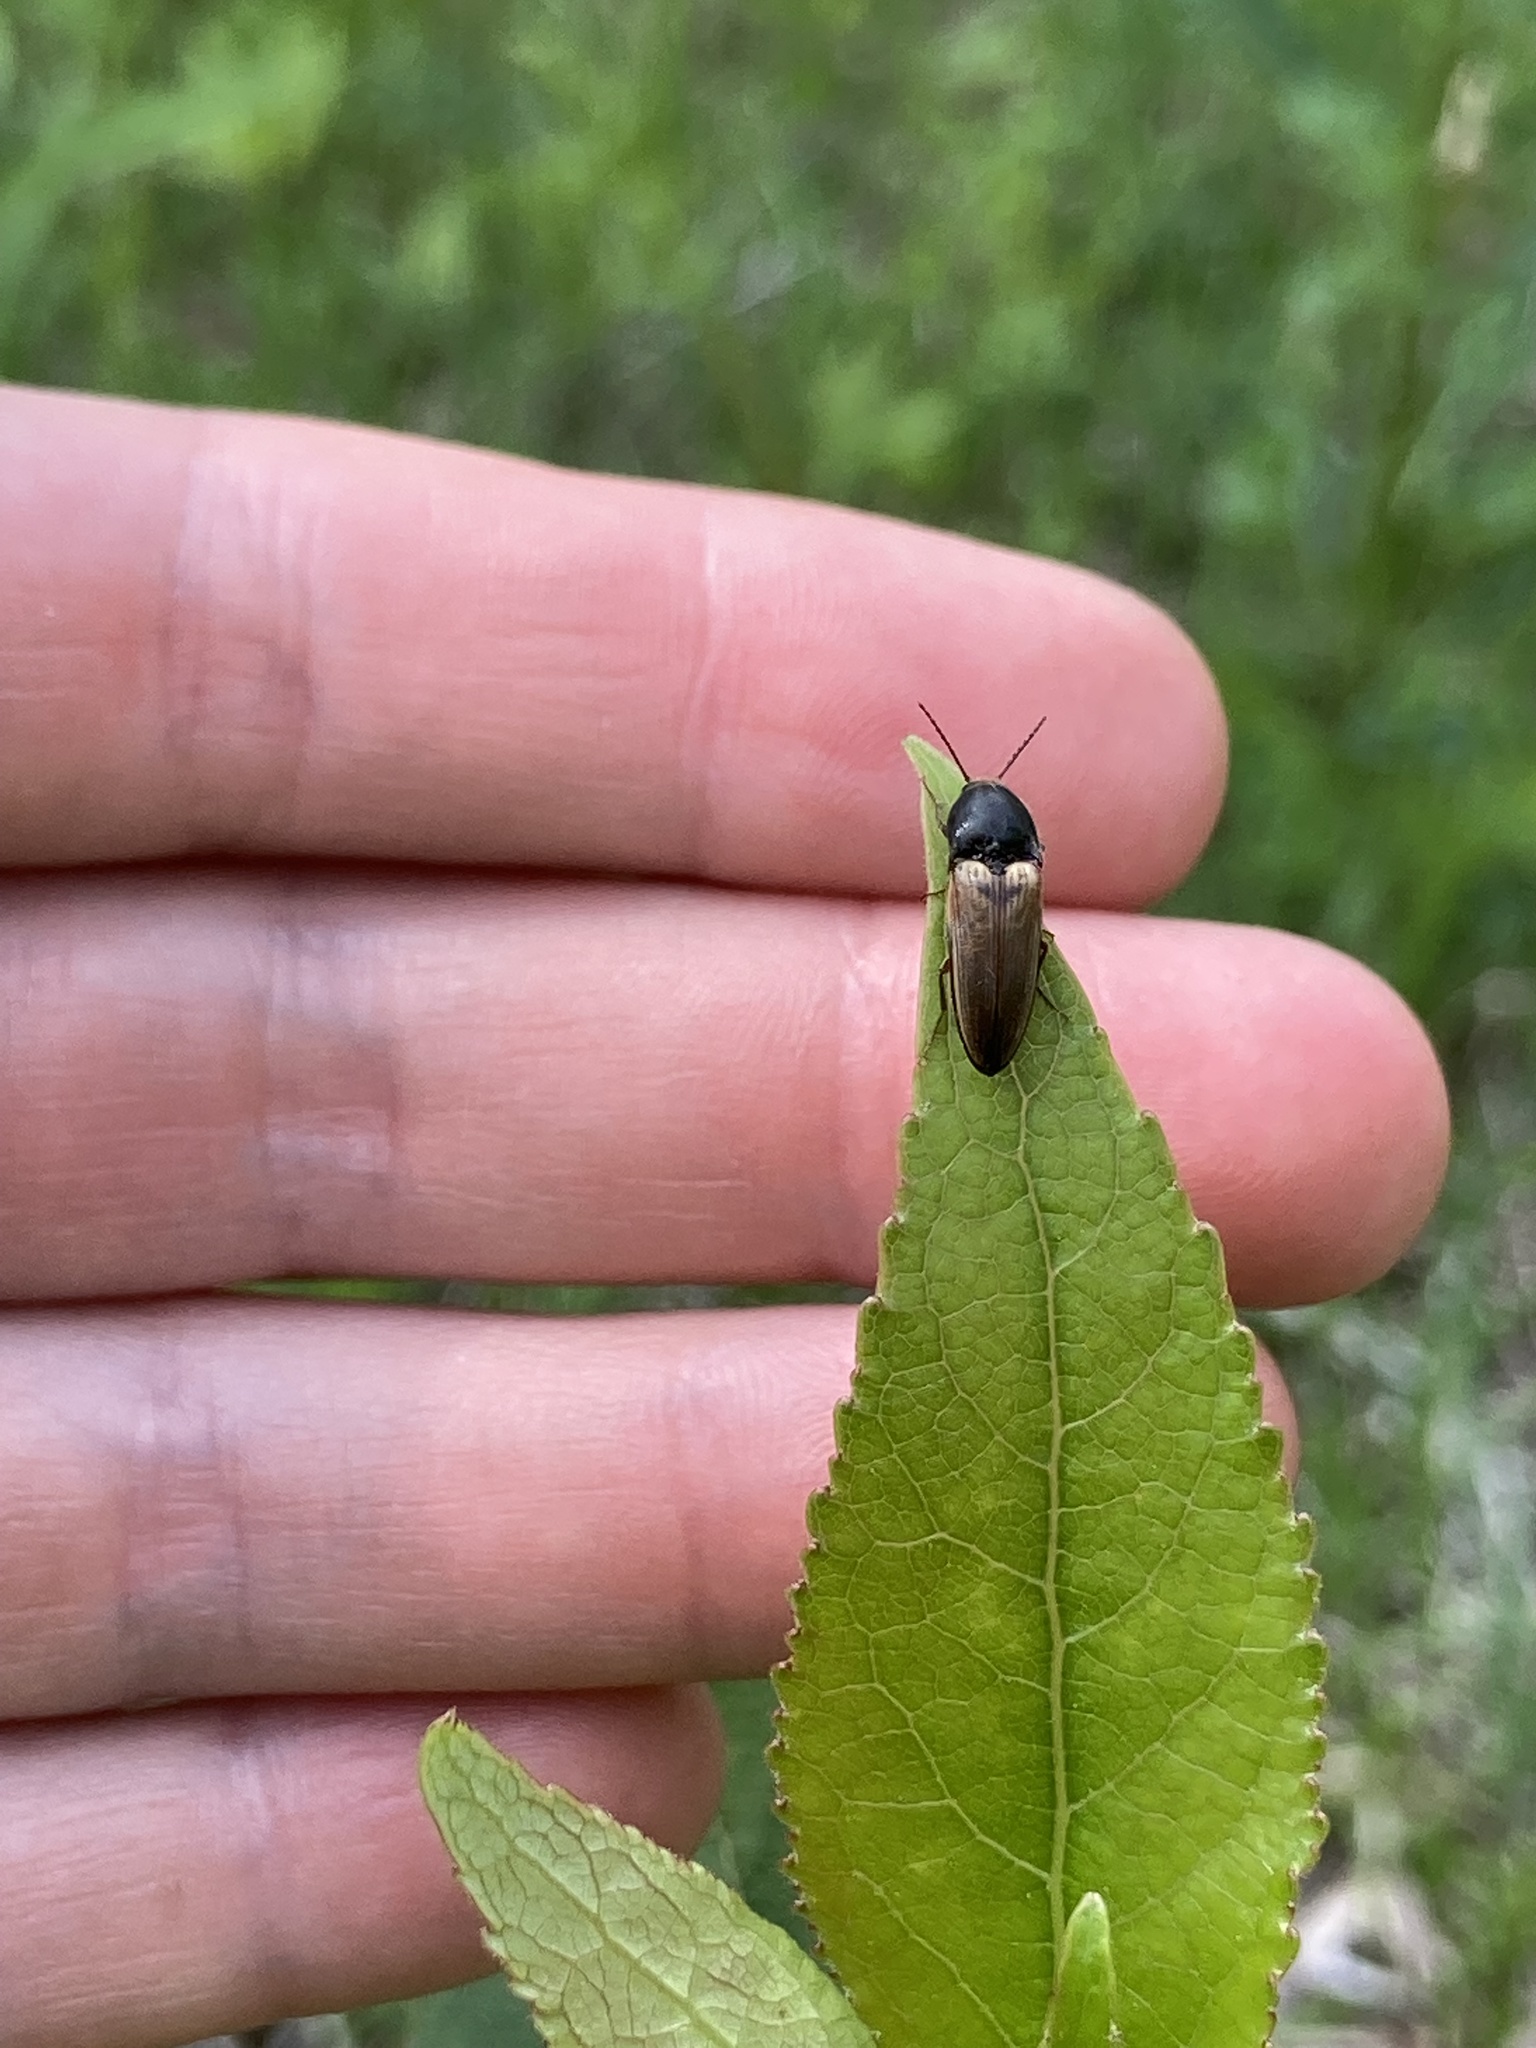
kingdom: Animalia
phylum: Arthropoda
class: Insecta
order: Coleoptera
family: Elateridae
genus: Ampedus
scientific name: Ampedus nigricollis
